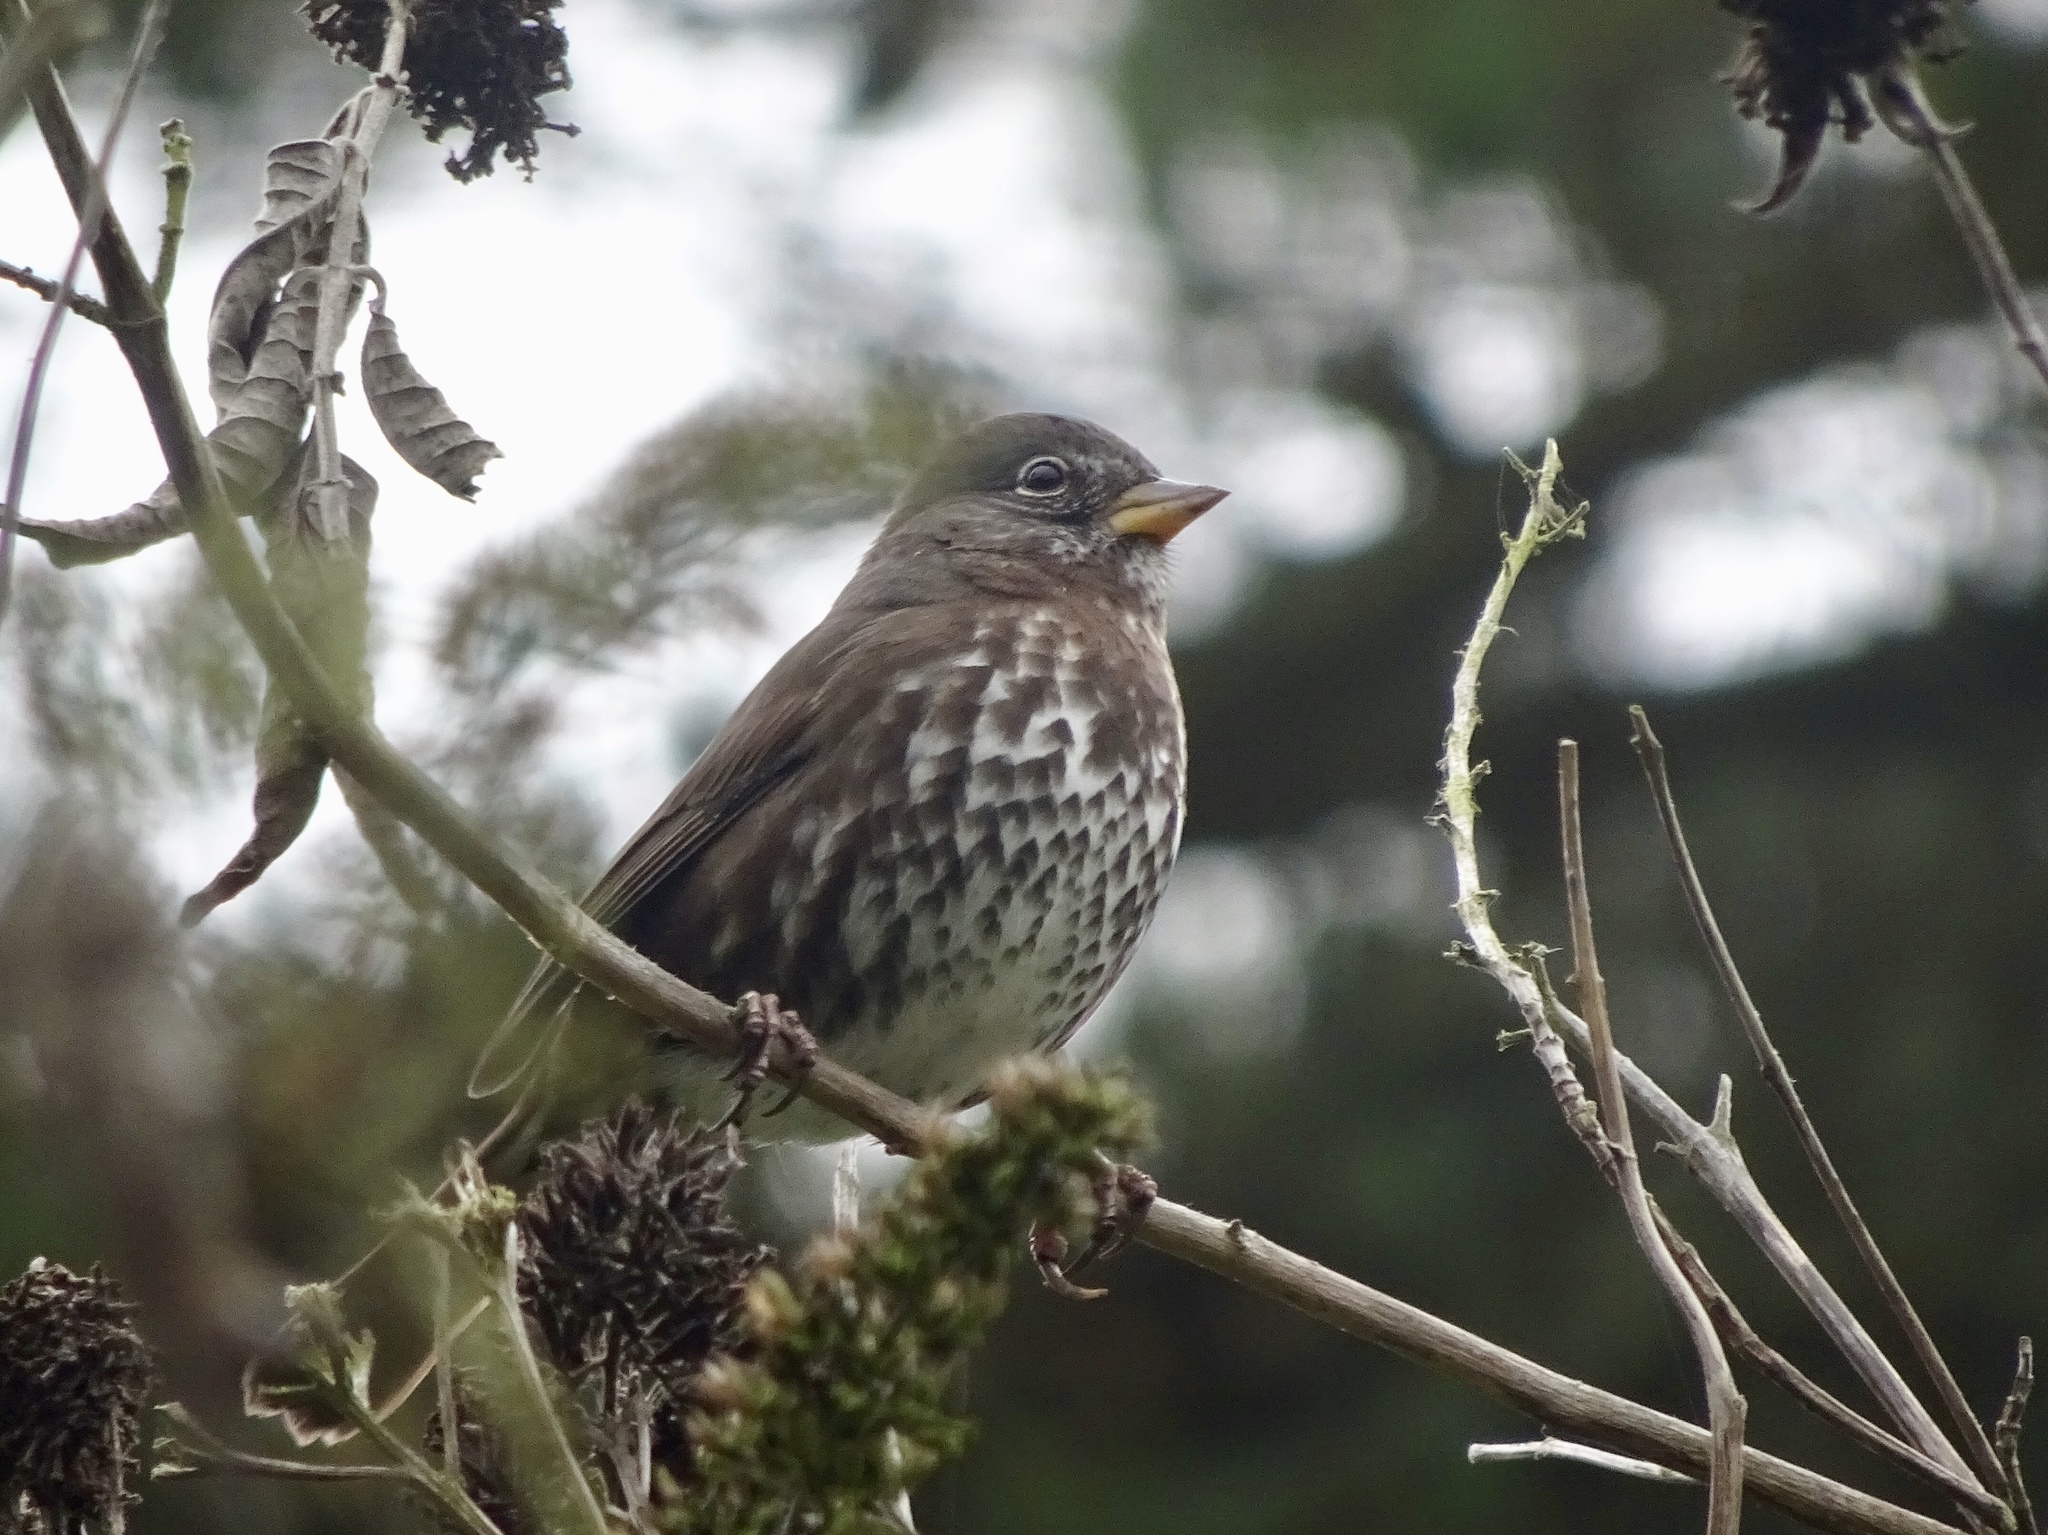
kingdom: Animalia
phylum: Chordata
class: Aves
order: Passeriformes
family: Passerellidae
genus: Passerella
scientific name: Passerella iliaca
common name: Fox sparrow
